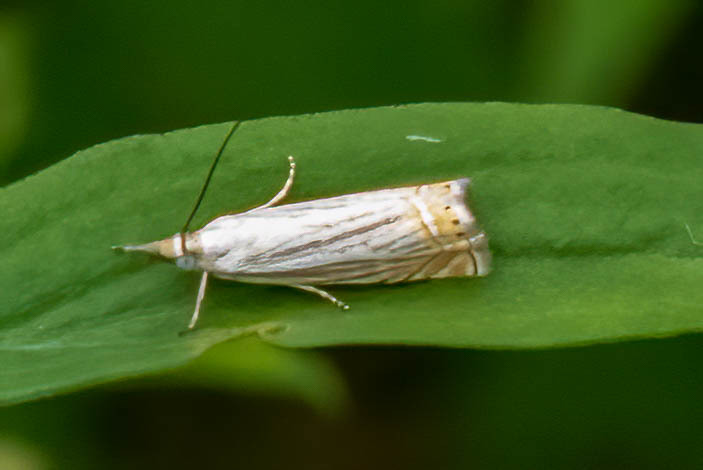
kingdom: Animalia
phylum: Arthropoda
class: Insecta
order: Lepidoptera
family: Crambidae
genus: Chrysoteuchia
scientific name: Chrysoteuchia topiarius
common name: Topiary grass-veneer
